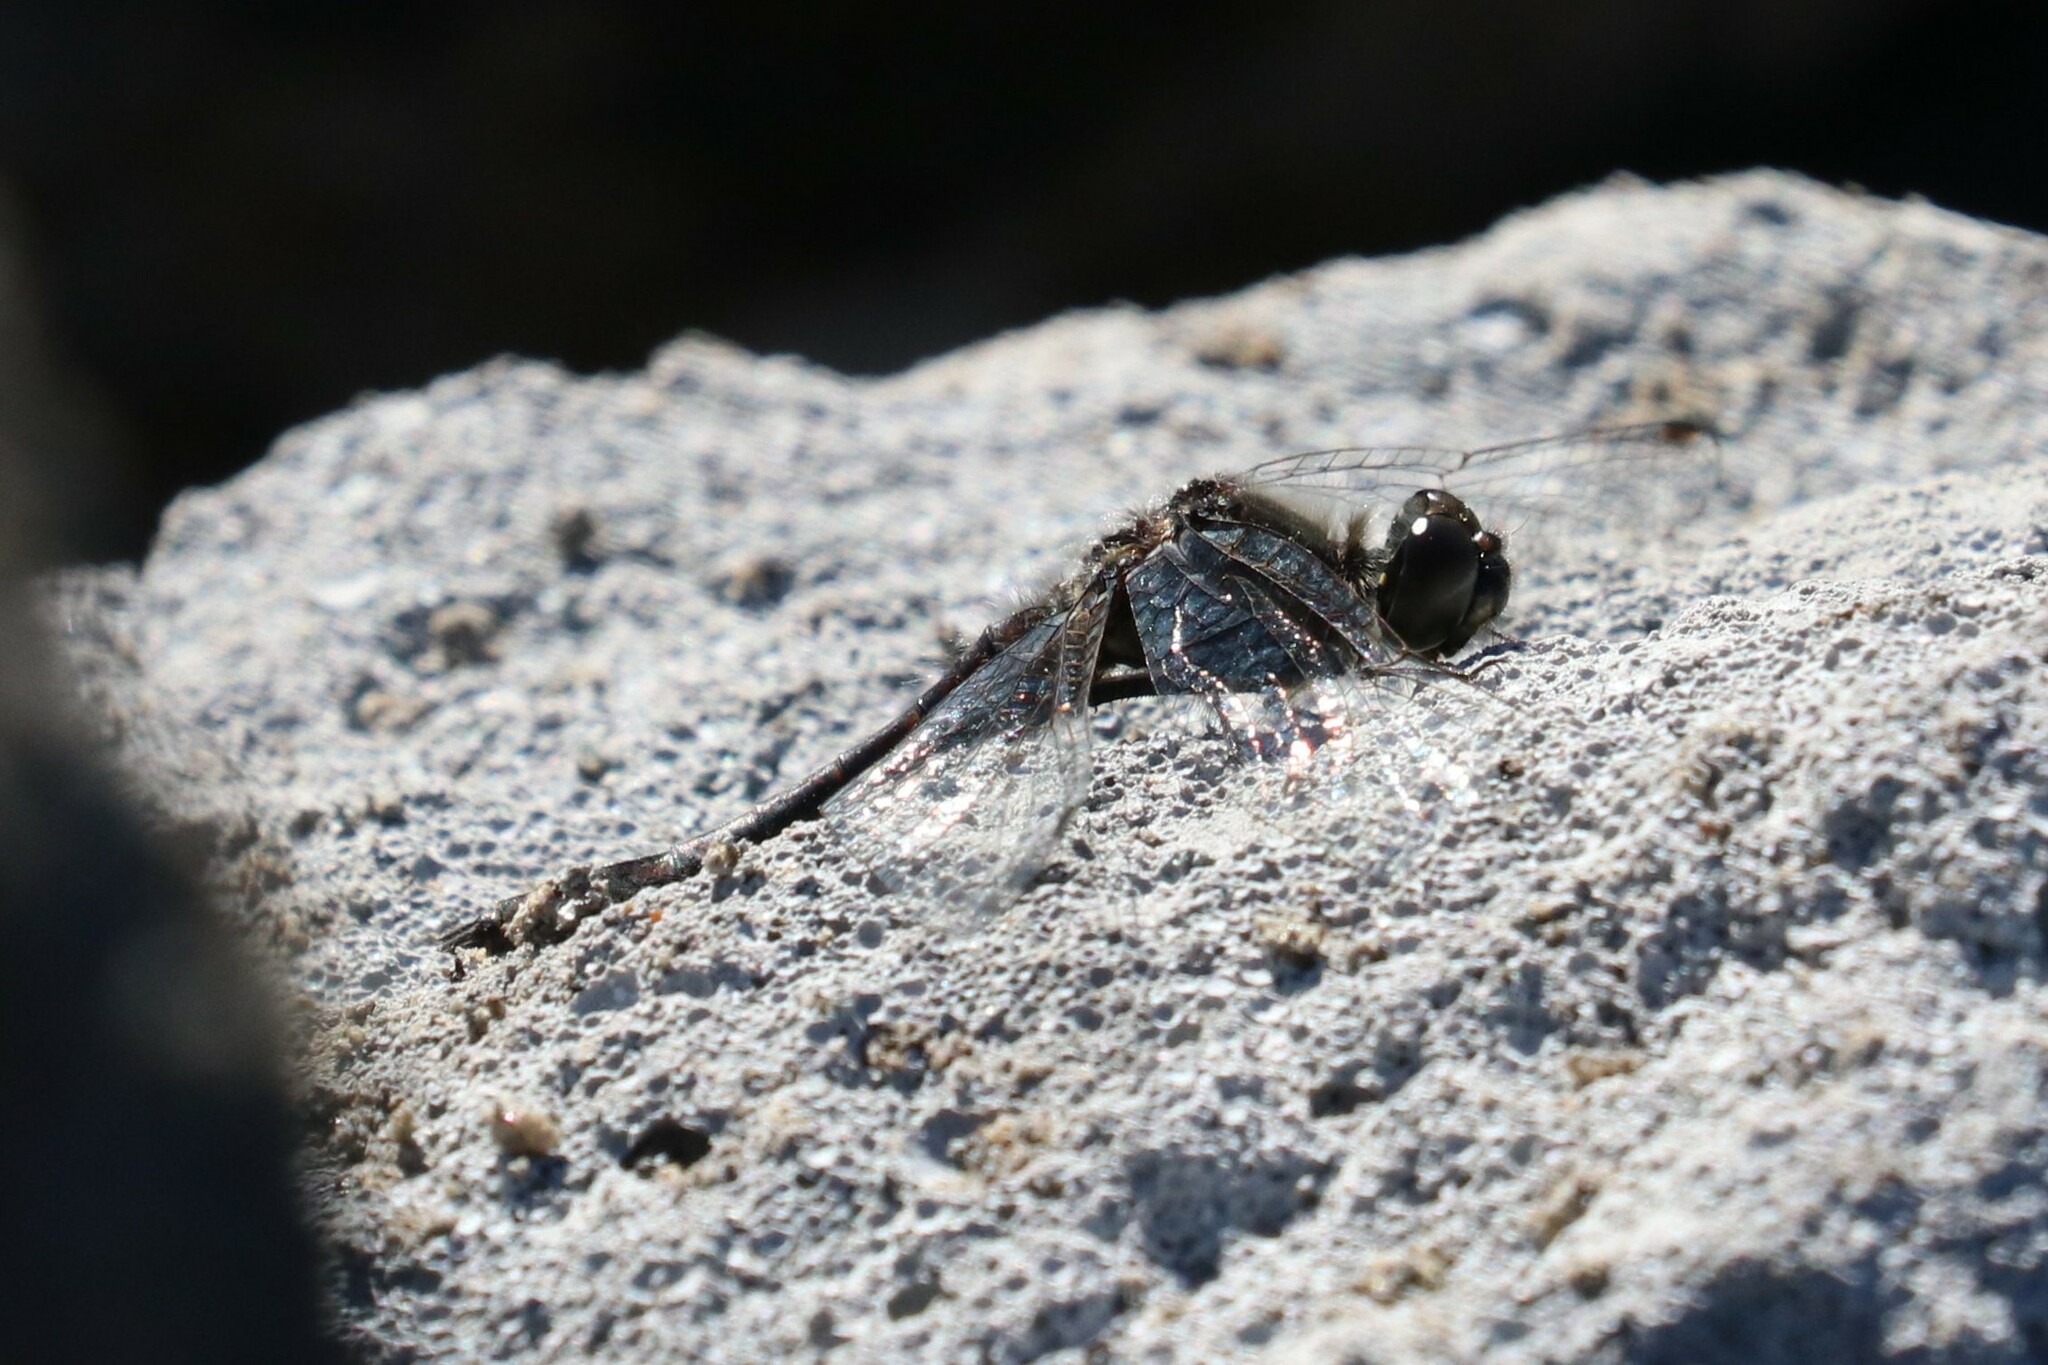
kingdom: Animalia
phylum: Arthropoda
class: Insecta
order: Odonata
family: Libellulidae
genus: Sympetrum
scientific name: Sympetrum danae
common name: Black darter
